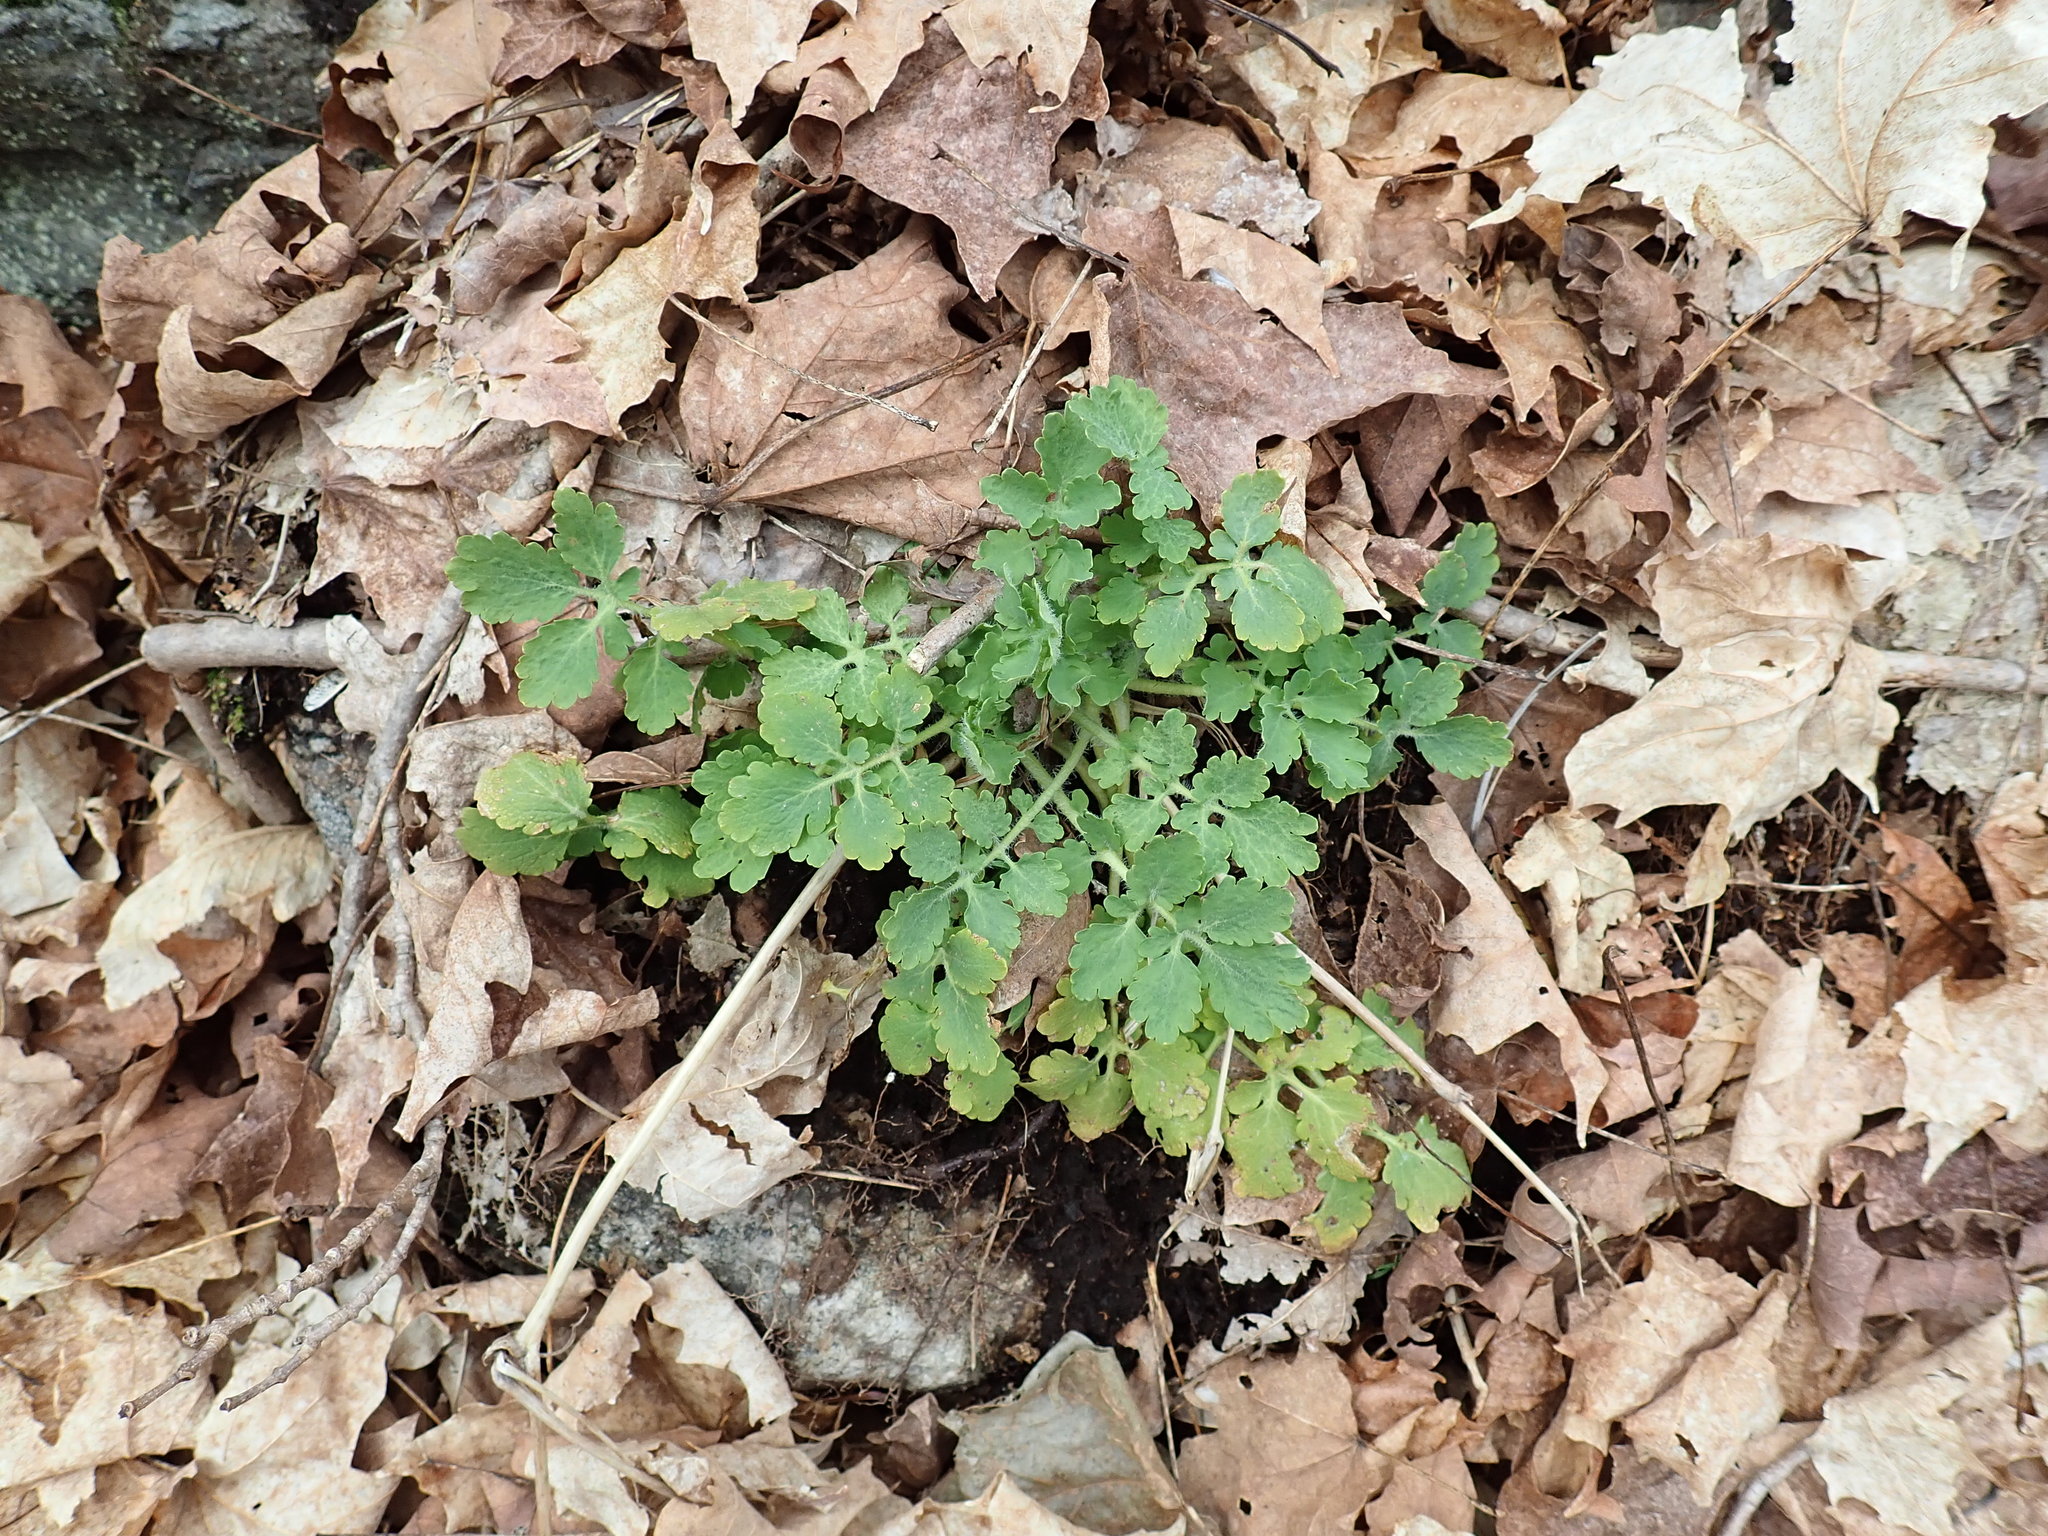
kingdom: Plantae
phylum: Tracheophyta
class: Magnoliopsida
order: Ranunculales
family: Papaveraceae
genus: Chelidonium
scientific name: Chelidonium majus
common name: Greater celandine
